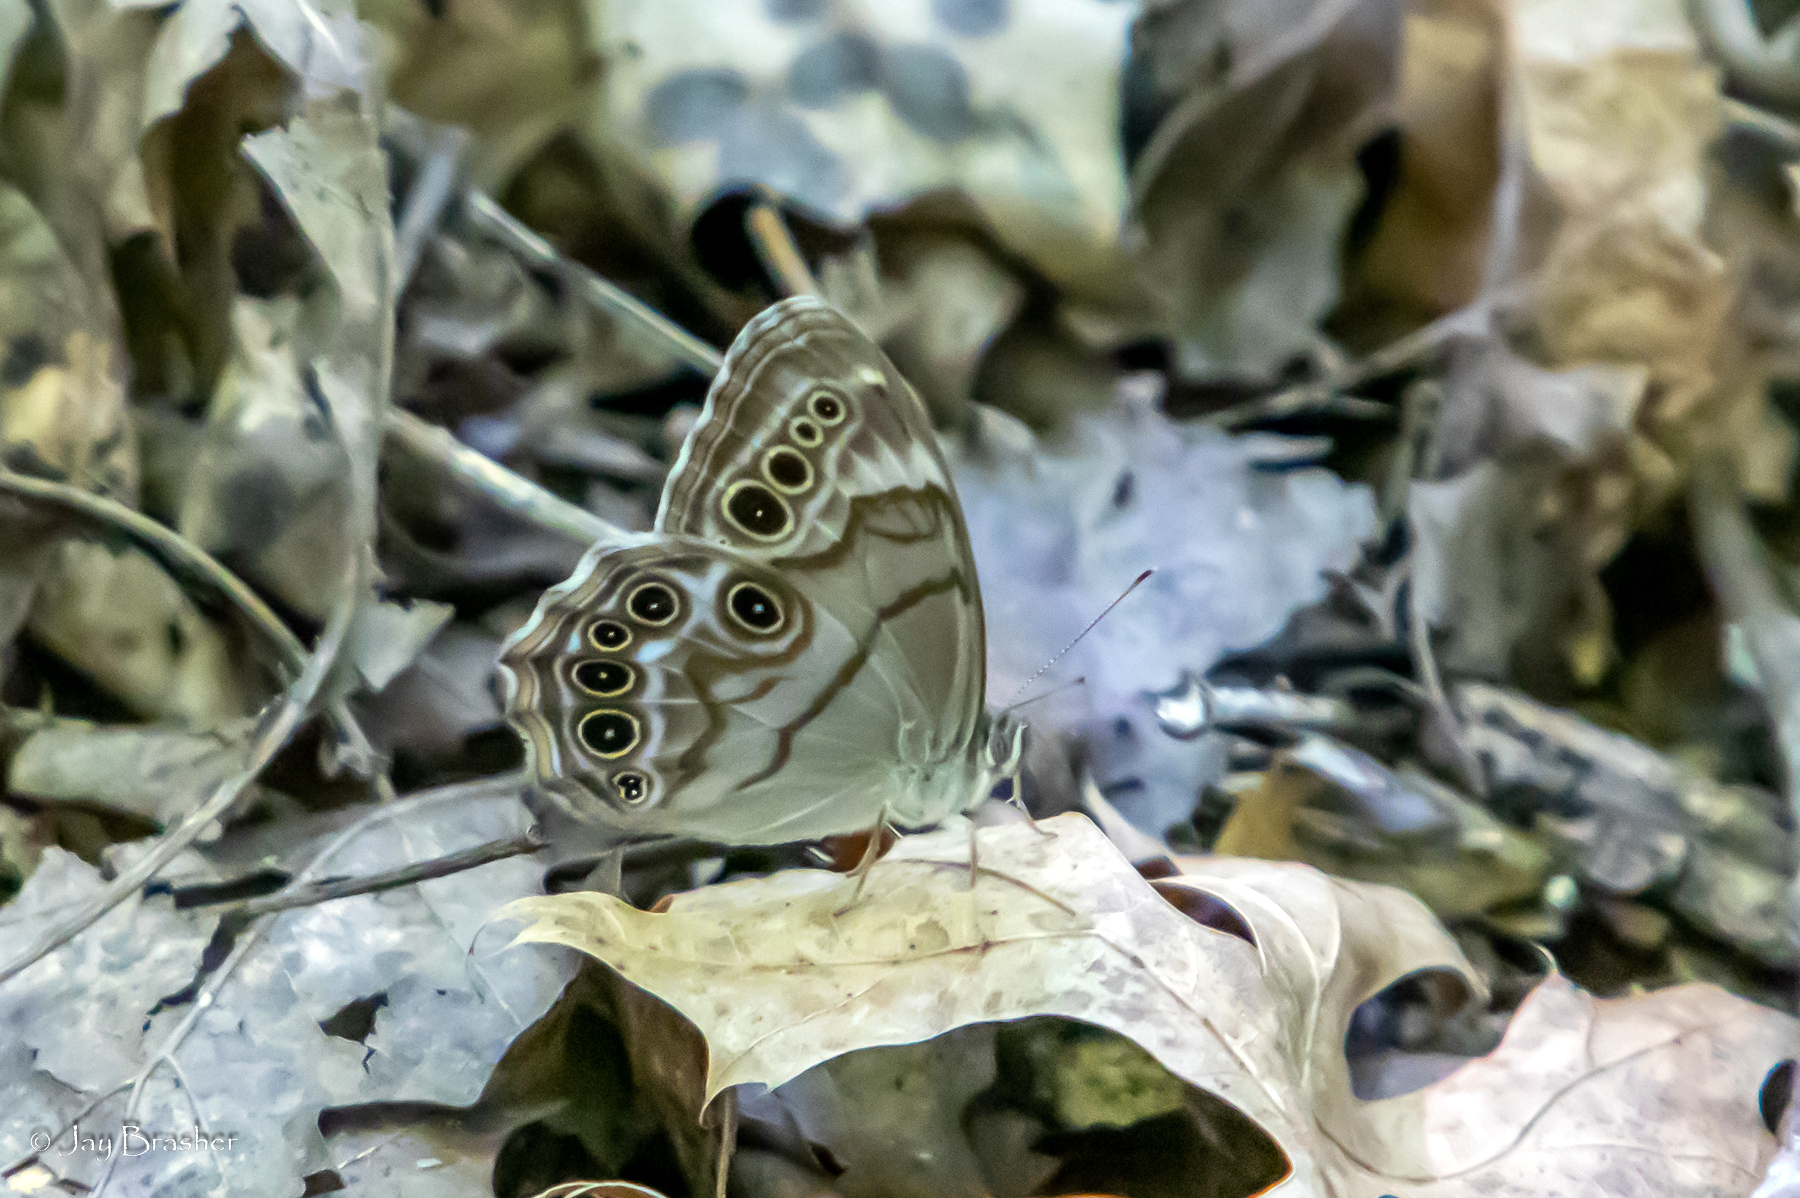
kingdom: Animalia
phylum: Arthropoda
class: Insecta
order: Lepidoptera
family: Nymphalidae
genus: Lethe
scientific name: Lethe anthedon
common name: Northern pearly-eye
